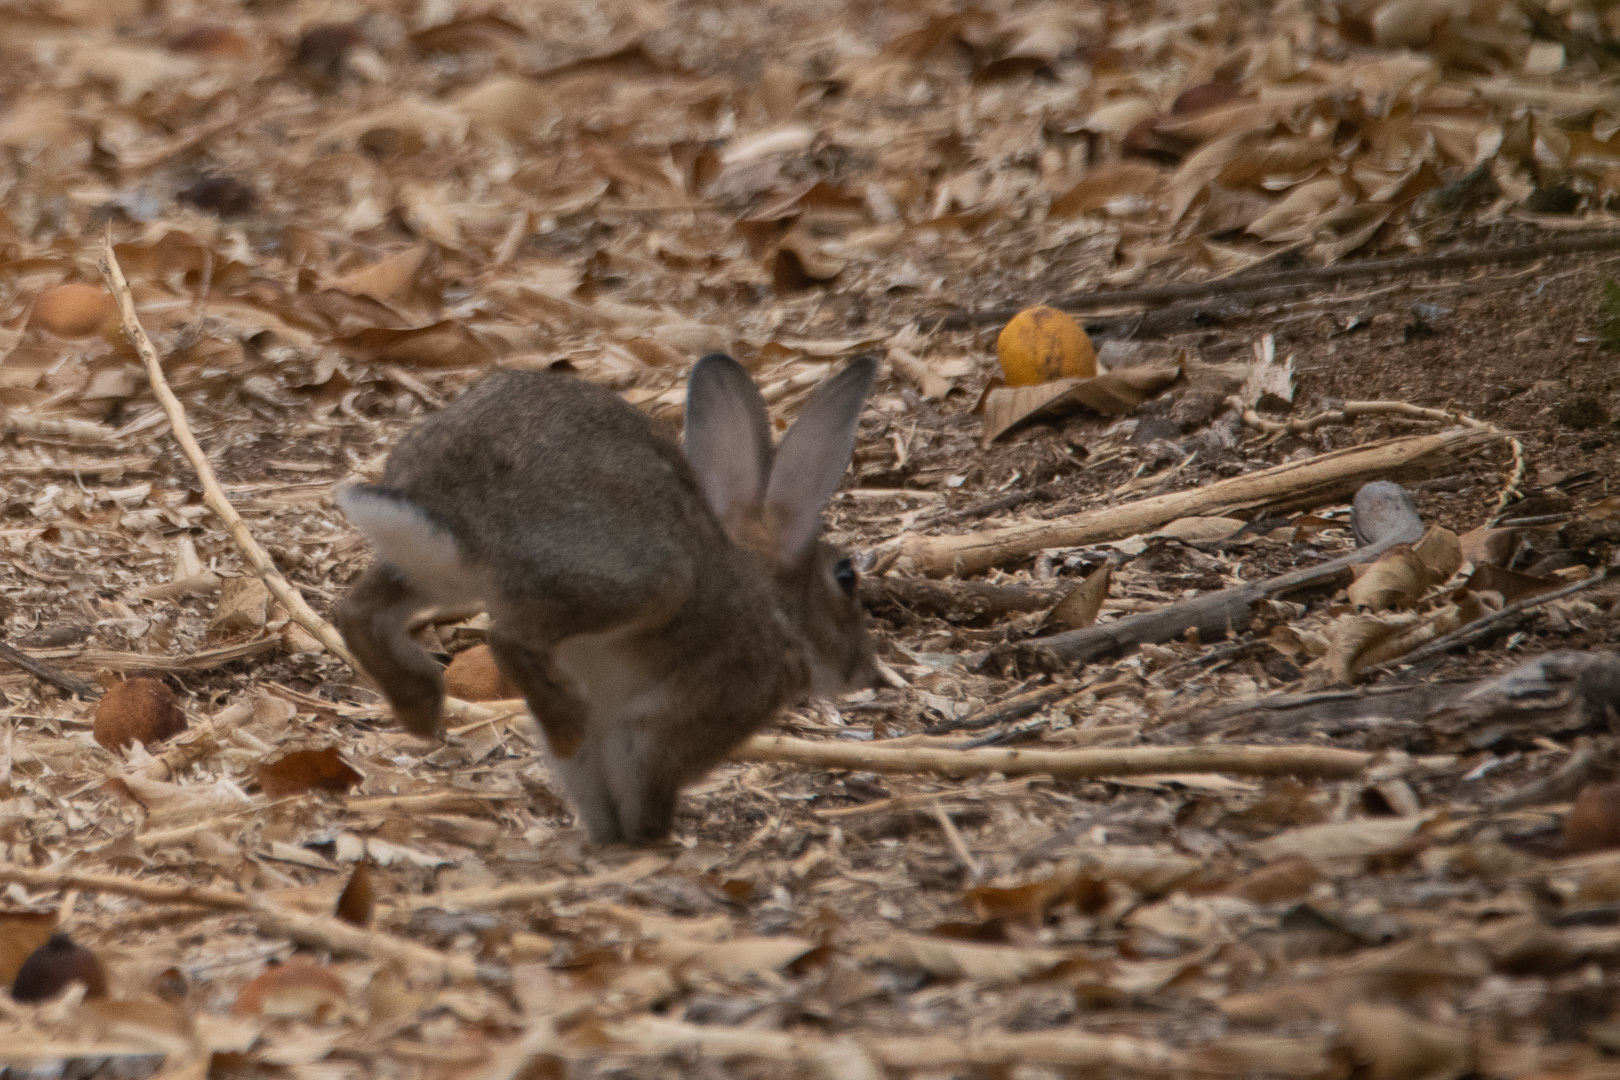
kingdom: Animalia
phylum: Chordata
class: Mammalia
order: Lagomorpha
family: Leporidae
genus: Oryctolagus
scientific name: Oryctolagus cuniculus
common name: European rabbit
